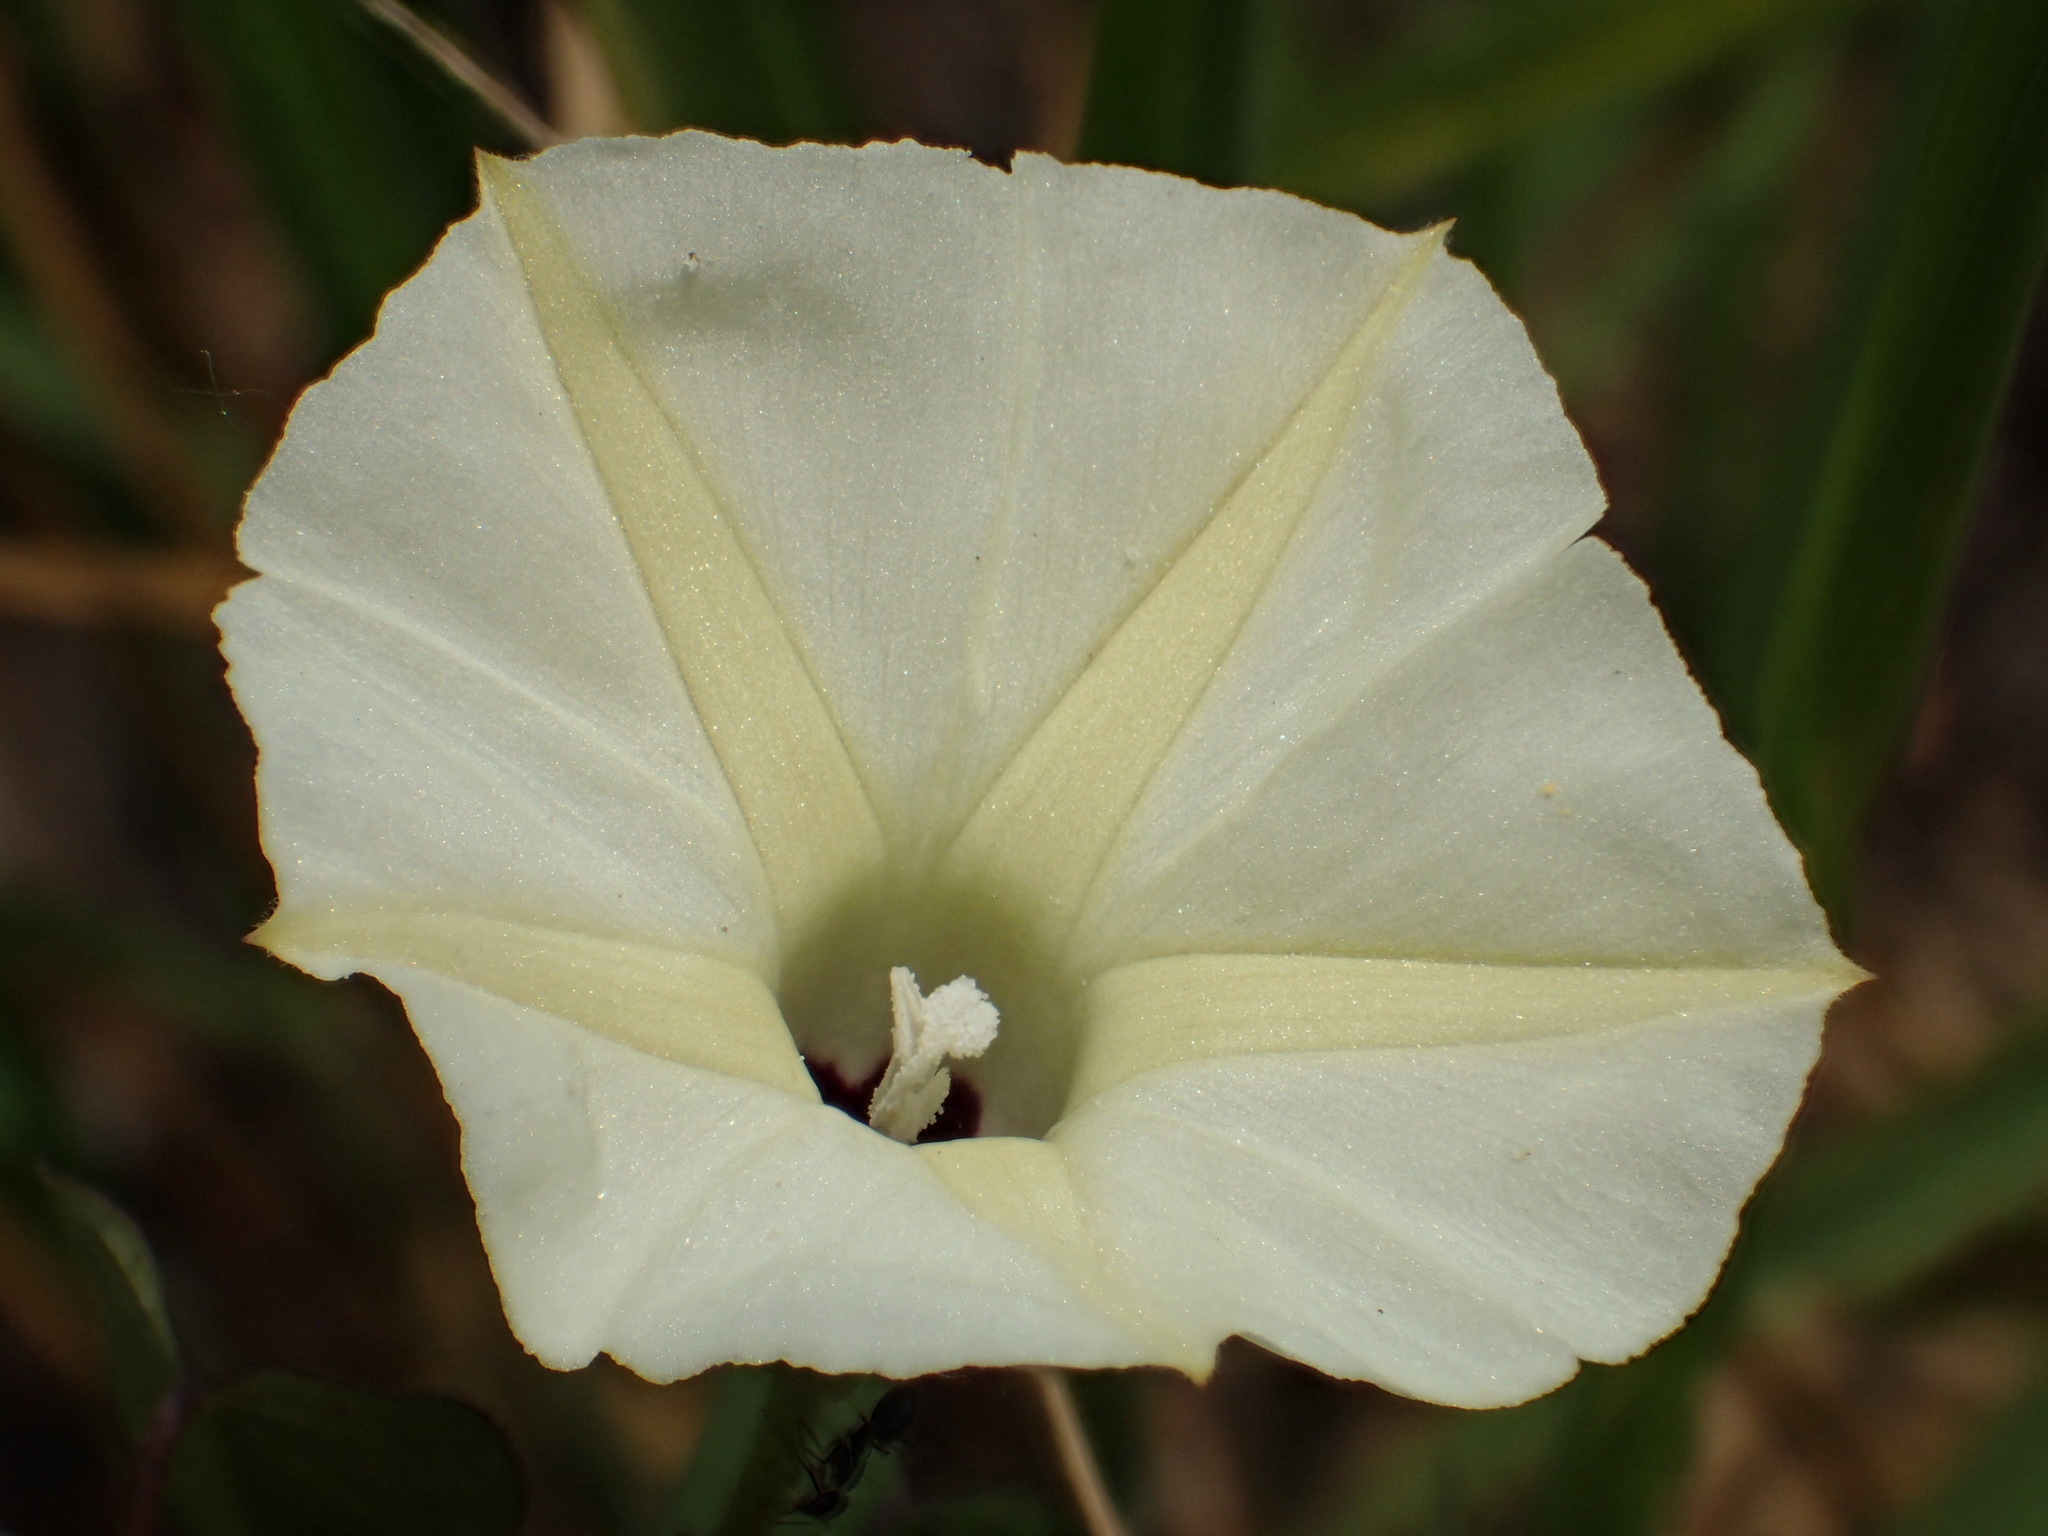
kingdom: Plantae
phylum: Tracheophyta
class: Magnoliopsida
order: Solanales
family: Convolvulaceae
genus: Ipomoea
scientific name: Ipomoea obscura
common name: Obscure morning-glory
